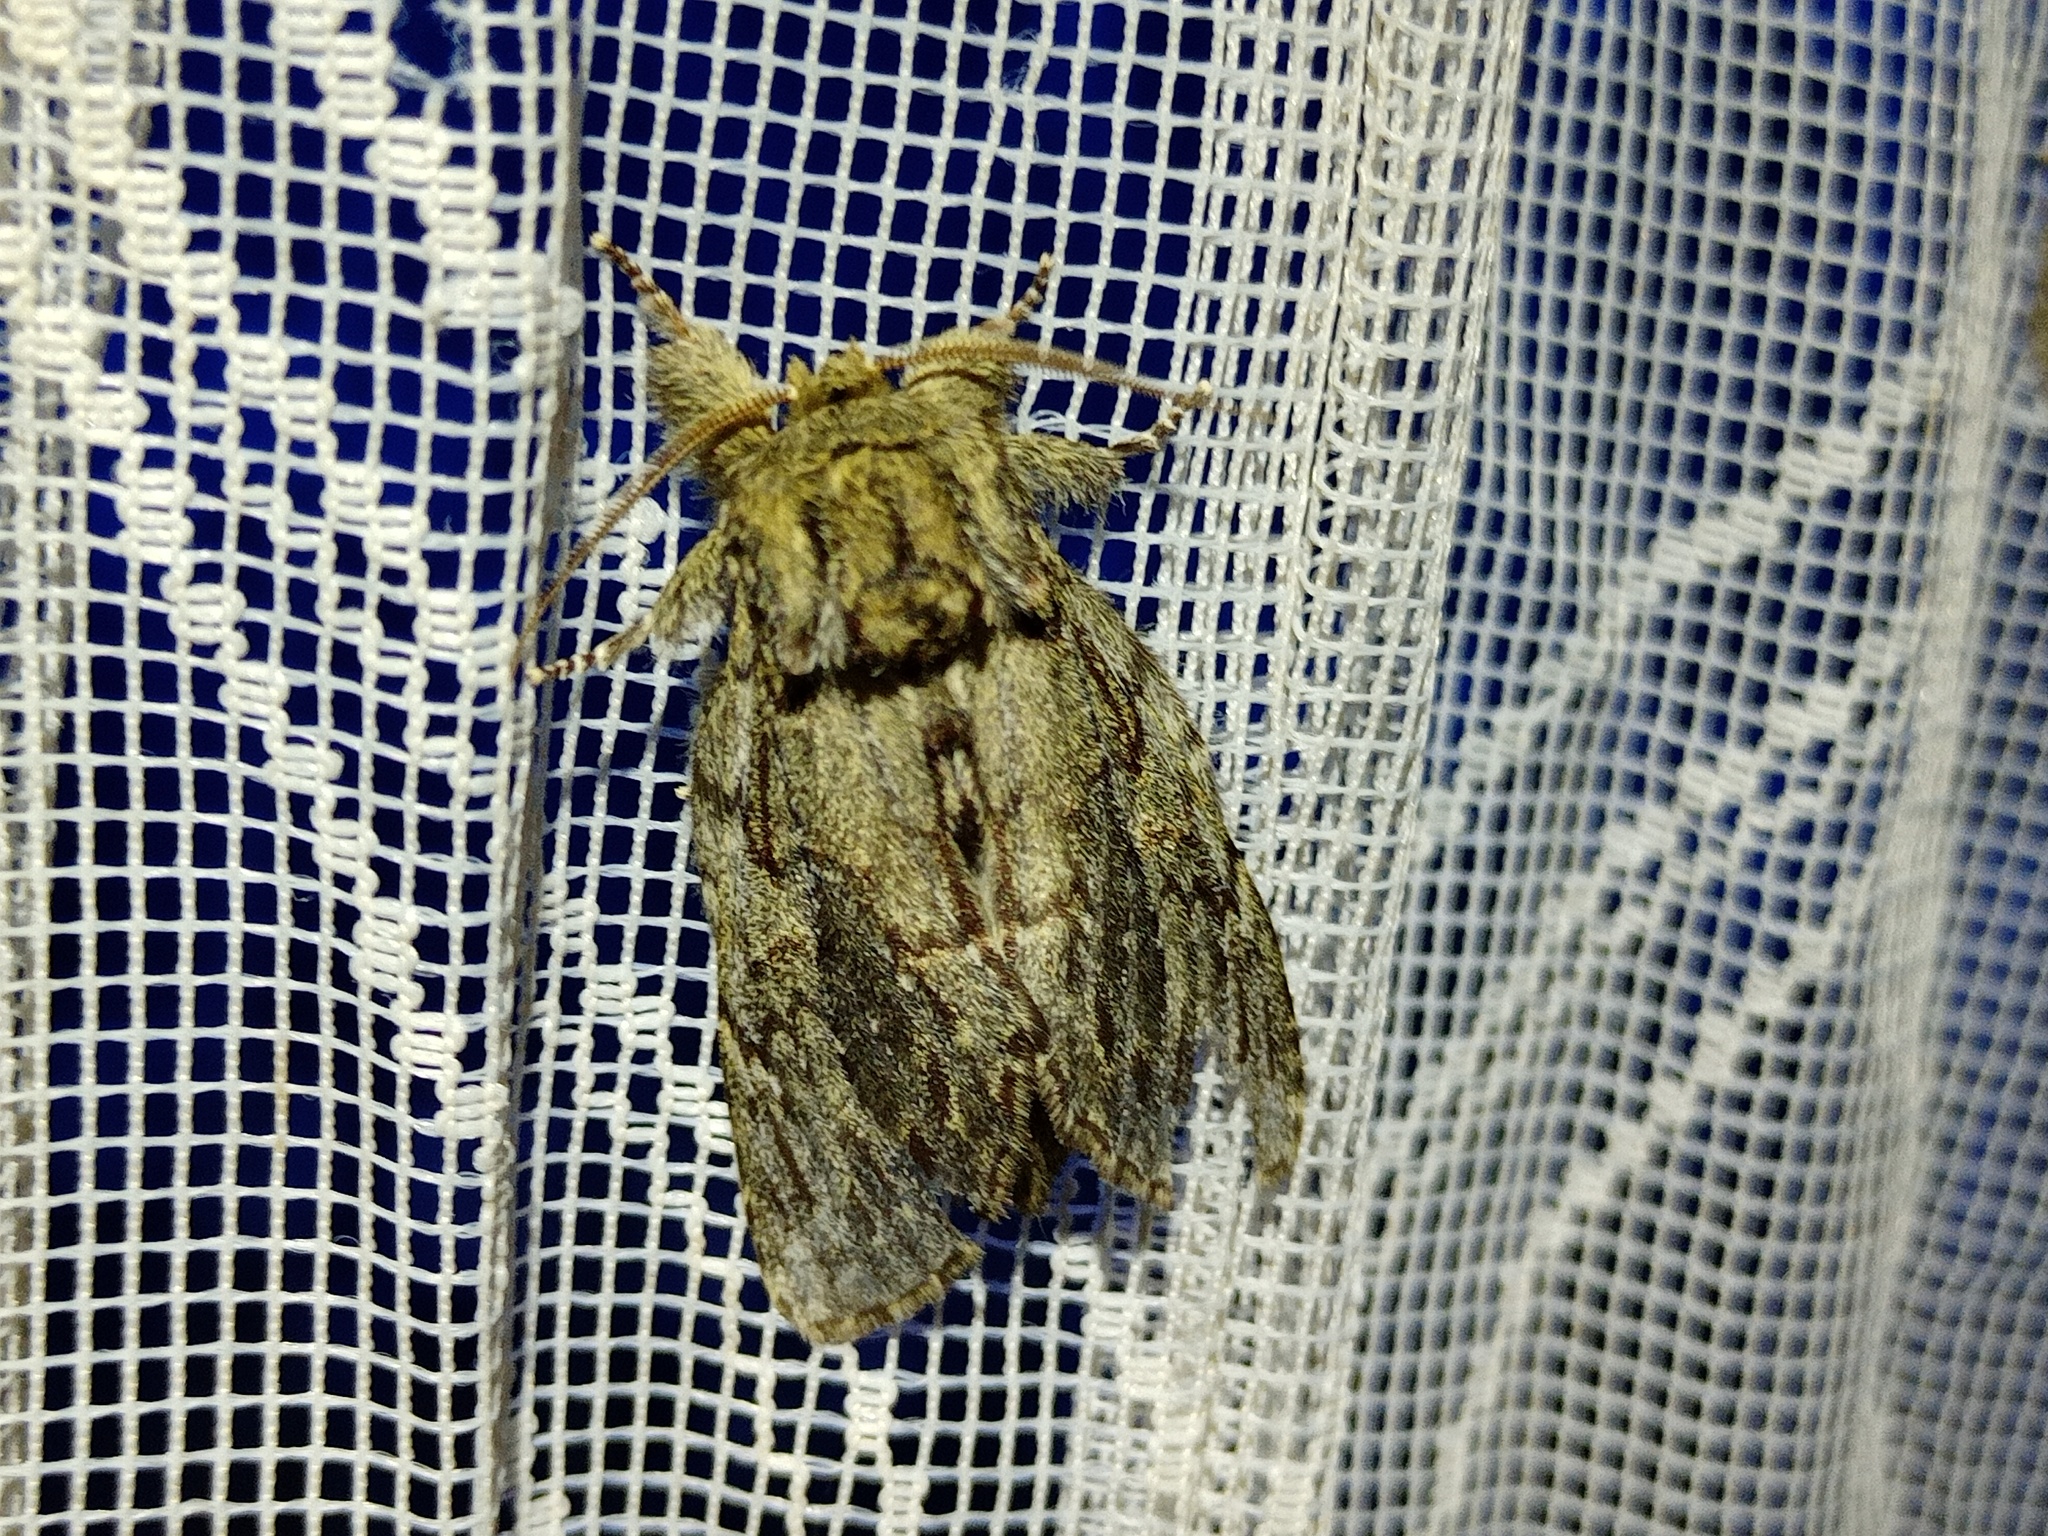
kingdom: Animalia
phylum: Arthropoda
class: Insecta
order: Lepidoptera
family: Notodontidae
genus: Peridea
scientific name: Peridea anceps
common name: Great prominent
